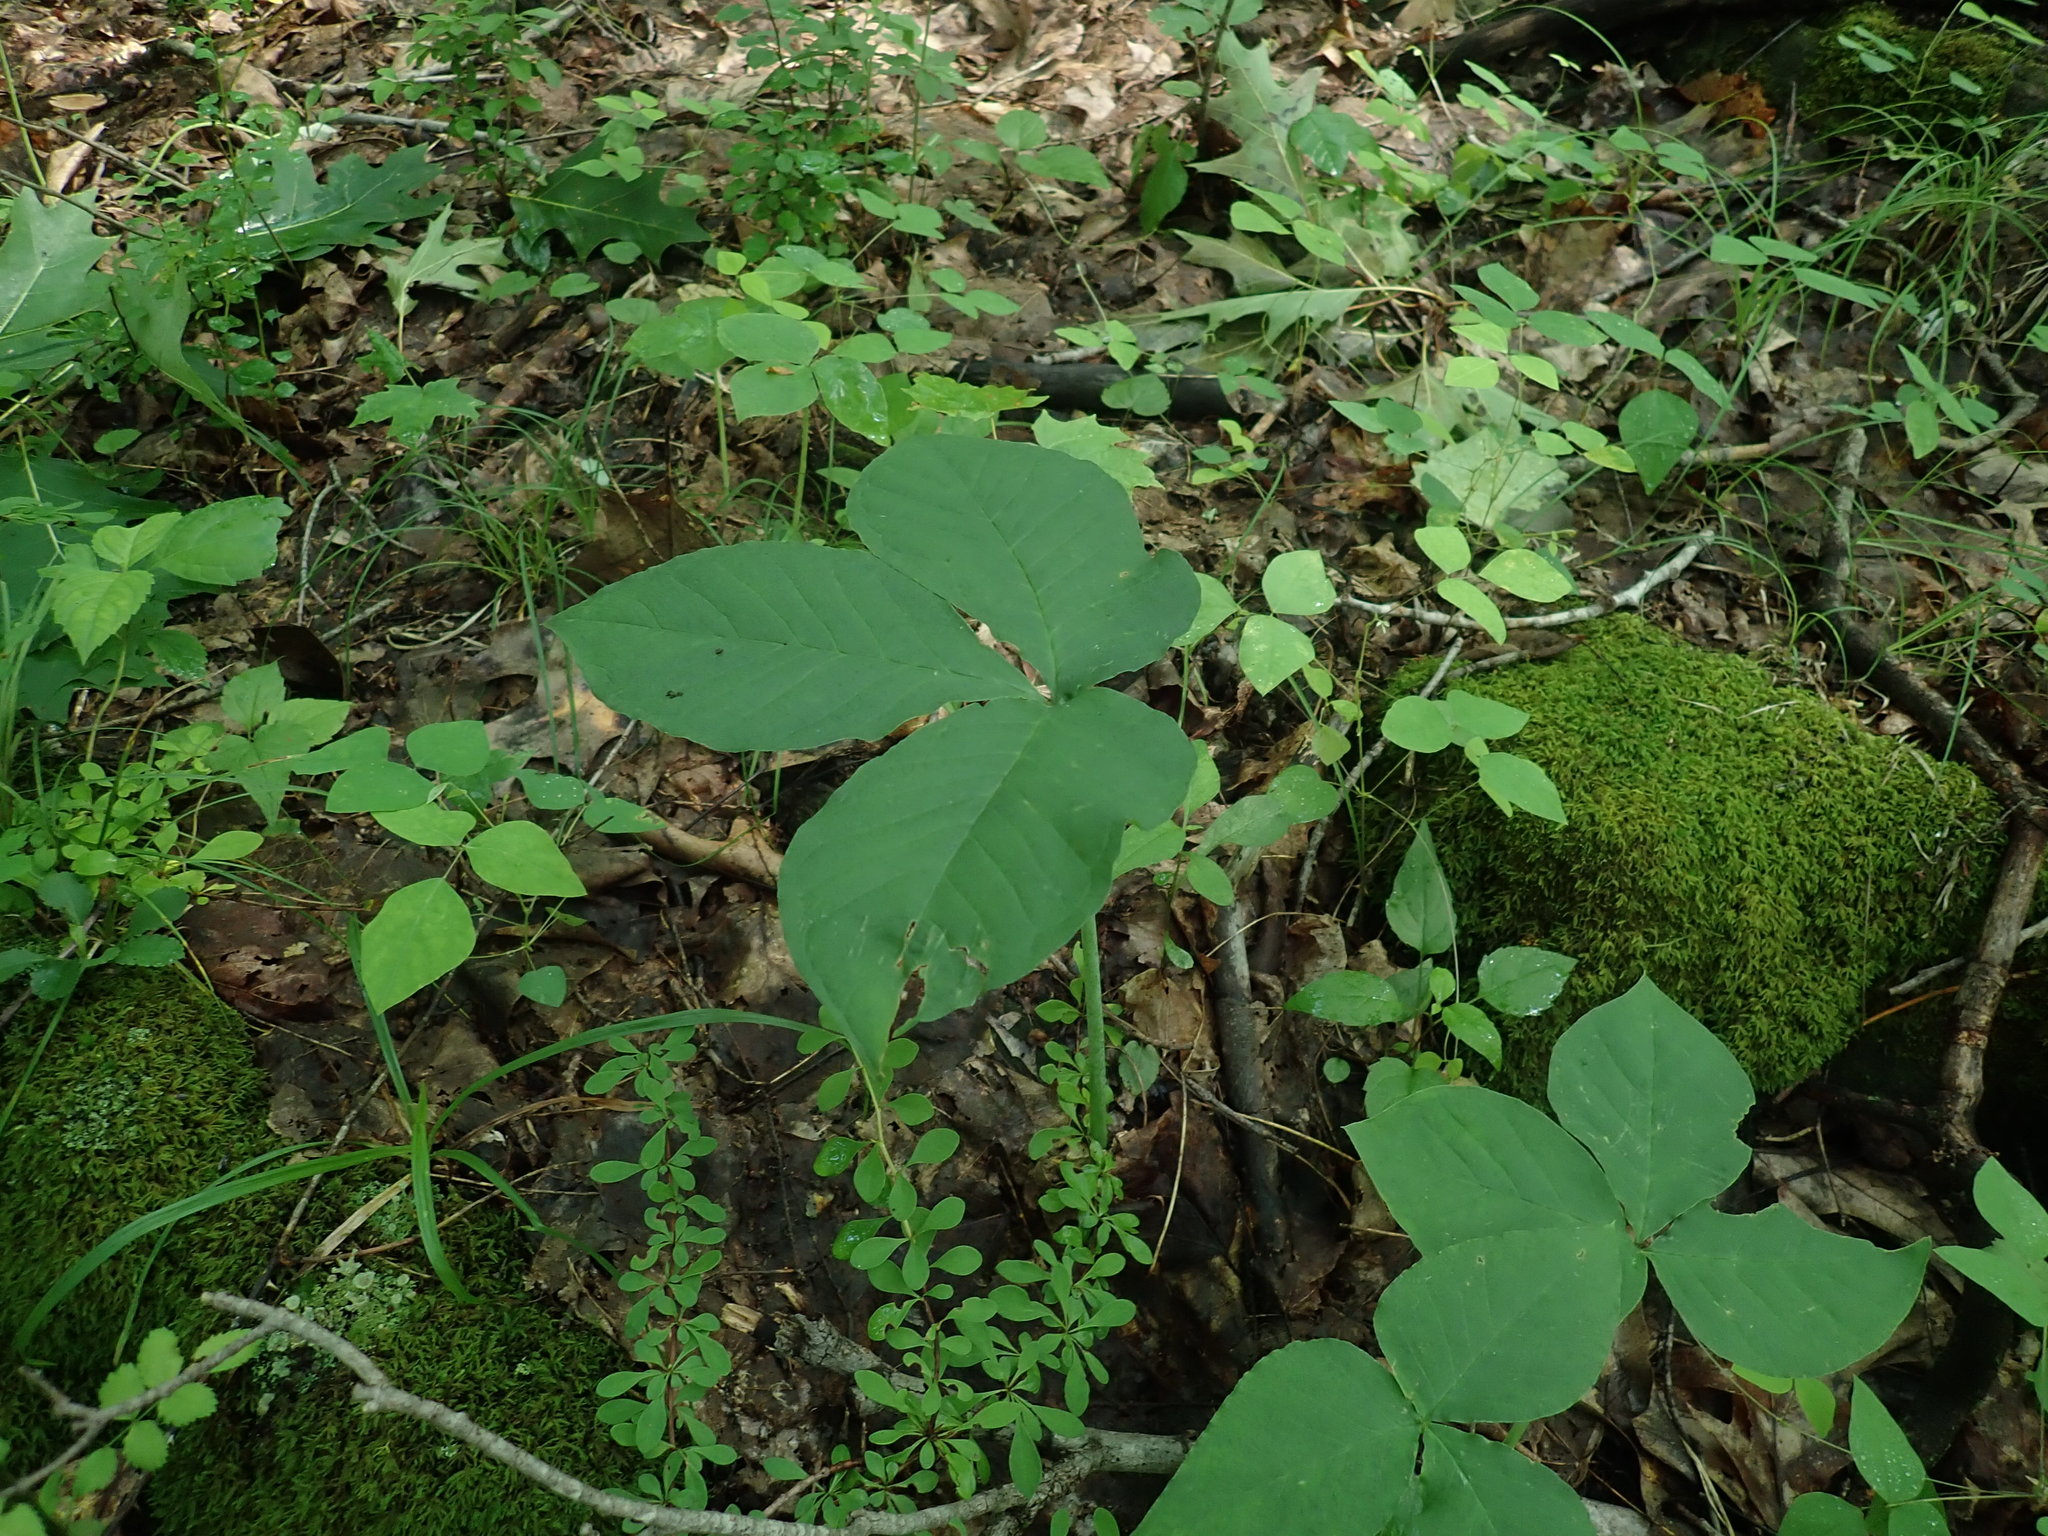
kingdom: Plantae
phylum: Tracheophyta
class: Liliopsida
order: Alismatales
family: Araceae
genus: Arisaema
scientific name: Arisaema triphyllum
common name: Jack-in-the-pulpit
